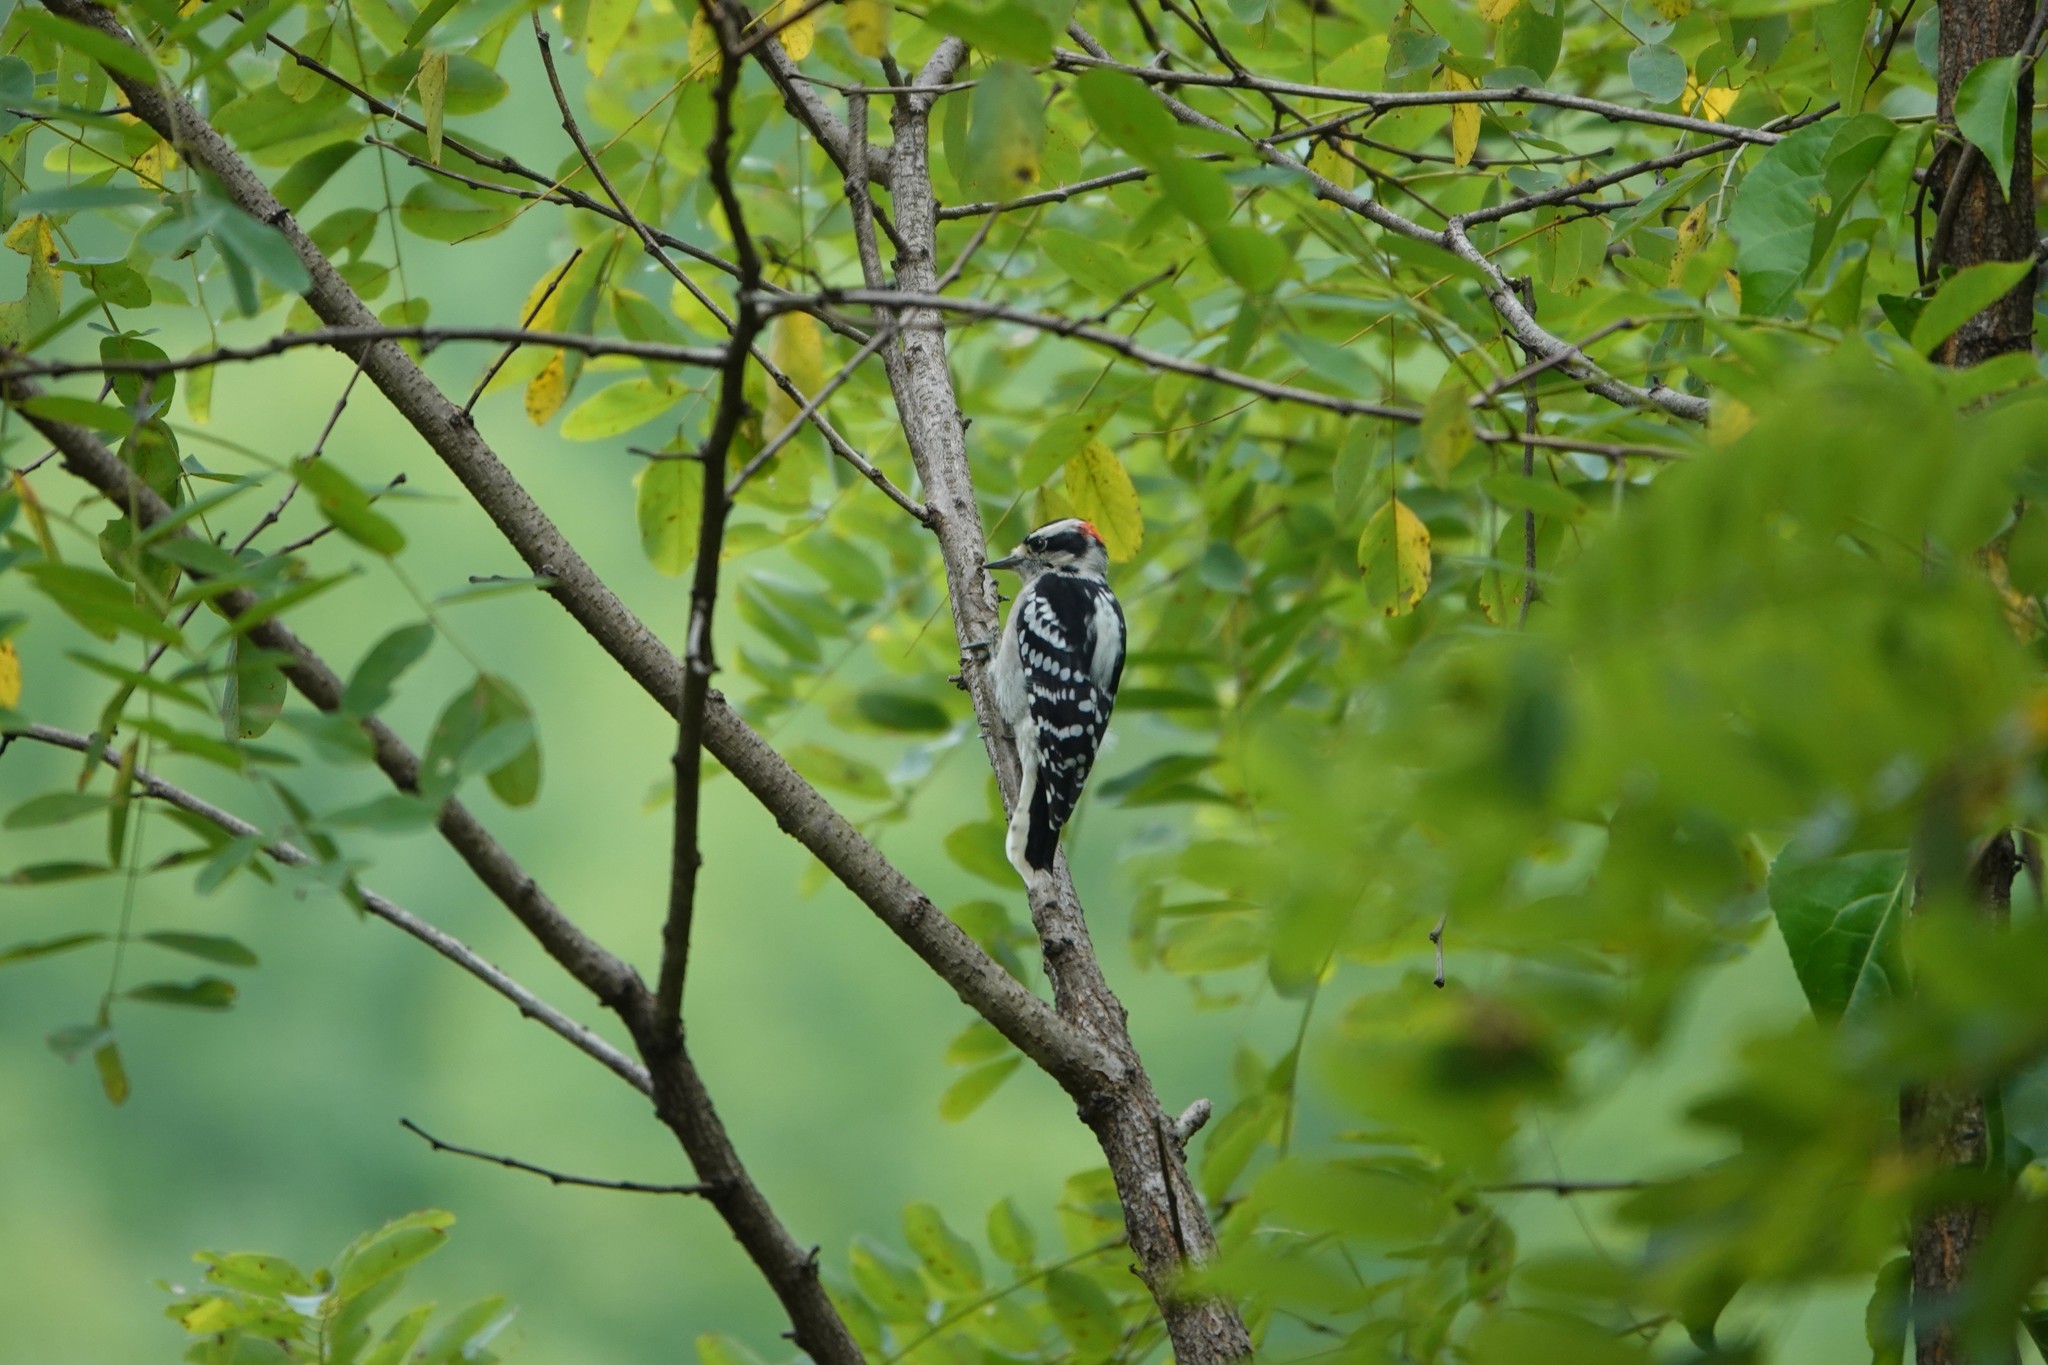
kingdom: Animalia
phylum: Chordata
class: Aves
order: Piciformes
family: Picidae
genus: Dryobates
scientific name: Dryobates pubescens
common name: Downy woodpecker
